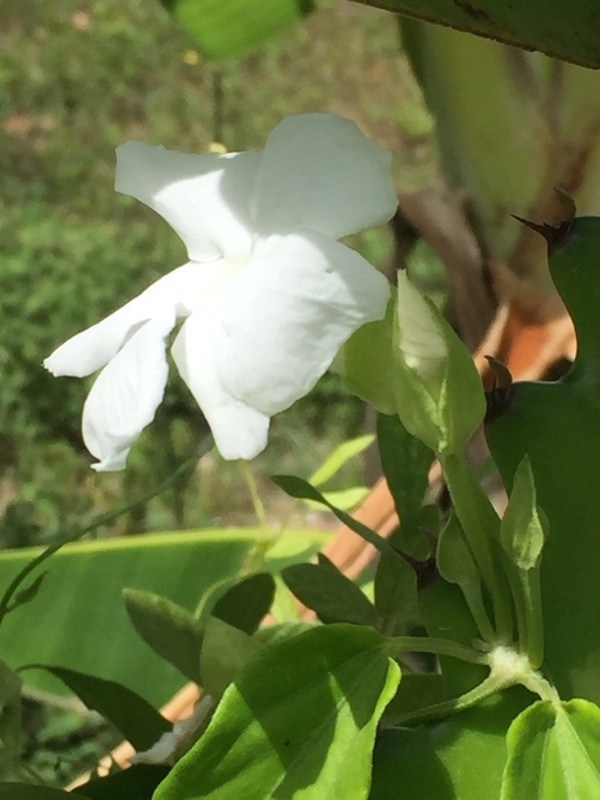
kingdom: Plantae
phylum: Tracheophyta
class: Magnoliopsida
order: Lamiales
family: Acanthaceae
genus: Thunbergia
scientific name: Thunbergia fragrans
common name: Whitelady
